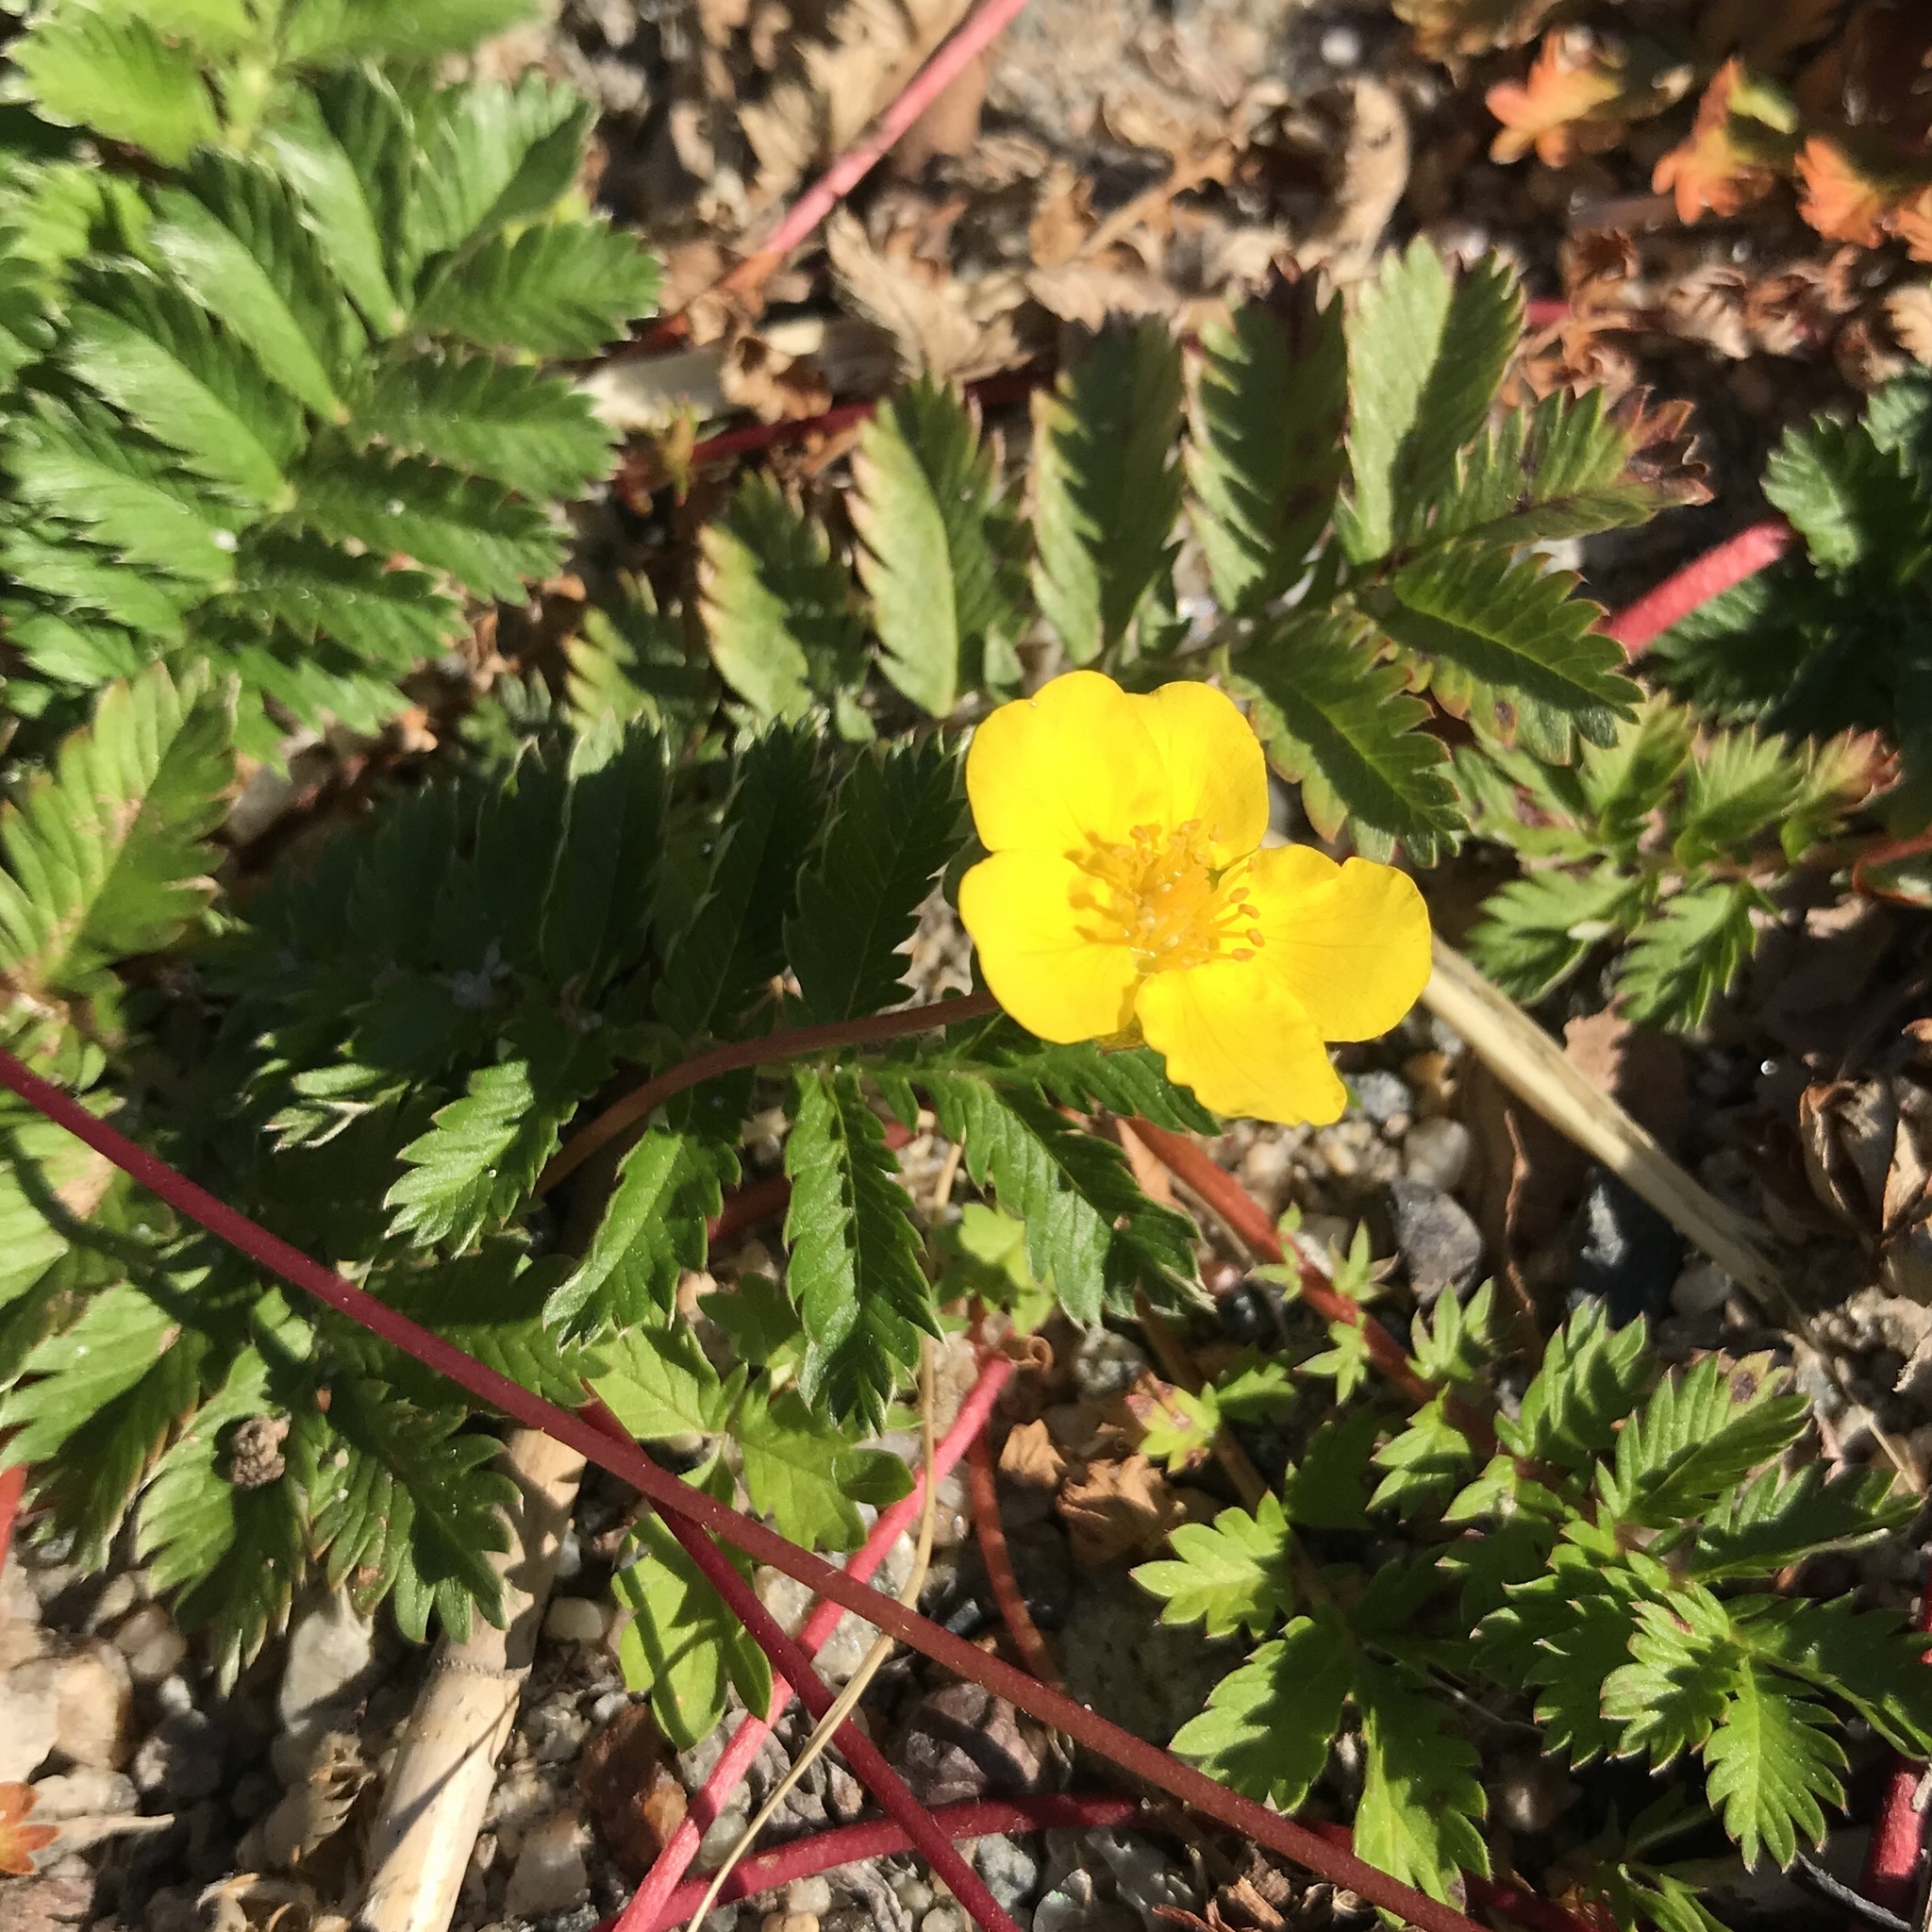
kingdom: Plantae
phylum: Tracheophyta
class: Magnoliopsida
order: Rosales
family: Rosaceae
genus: Argentina
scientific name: Argentina anserina
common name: Common silverweed
